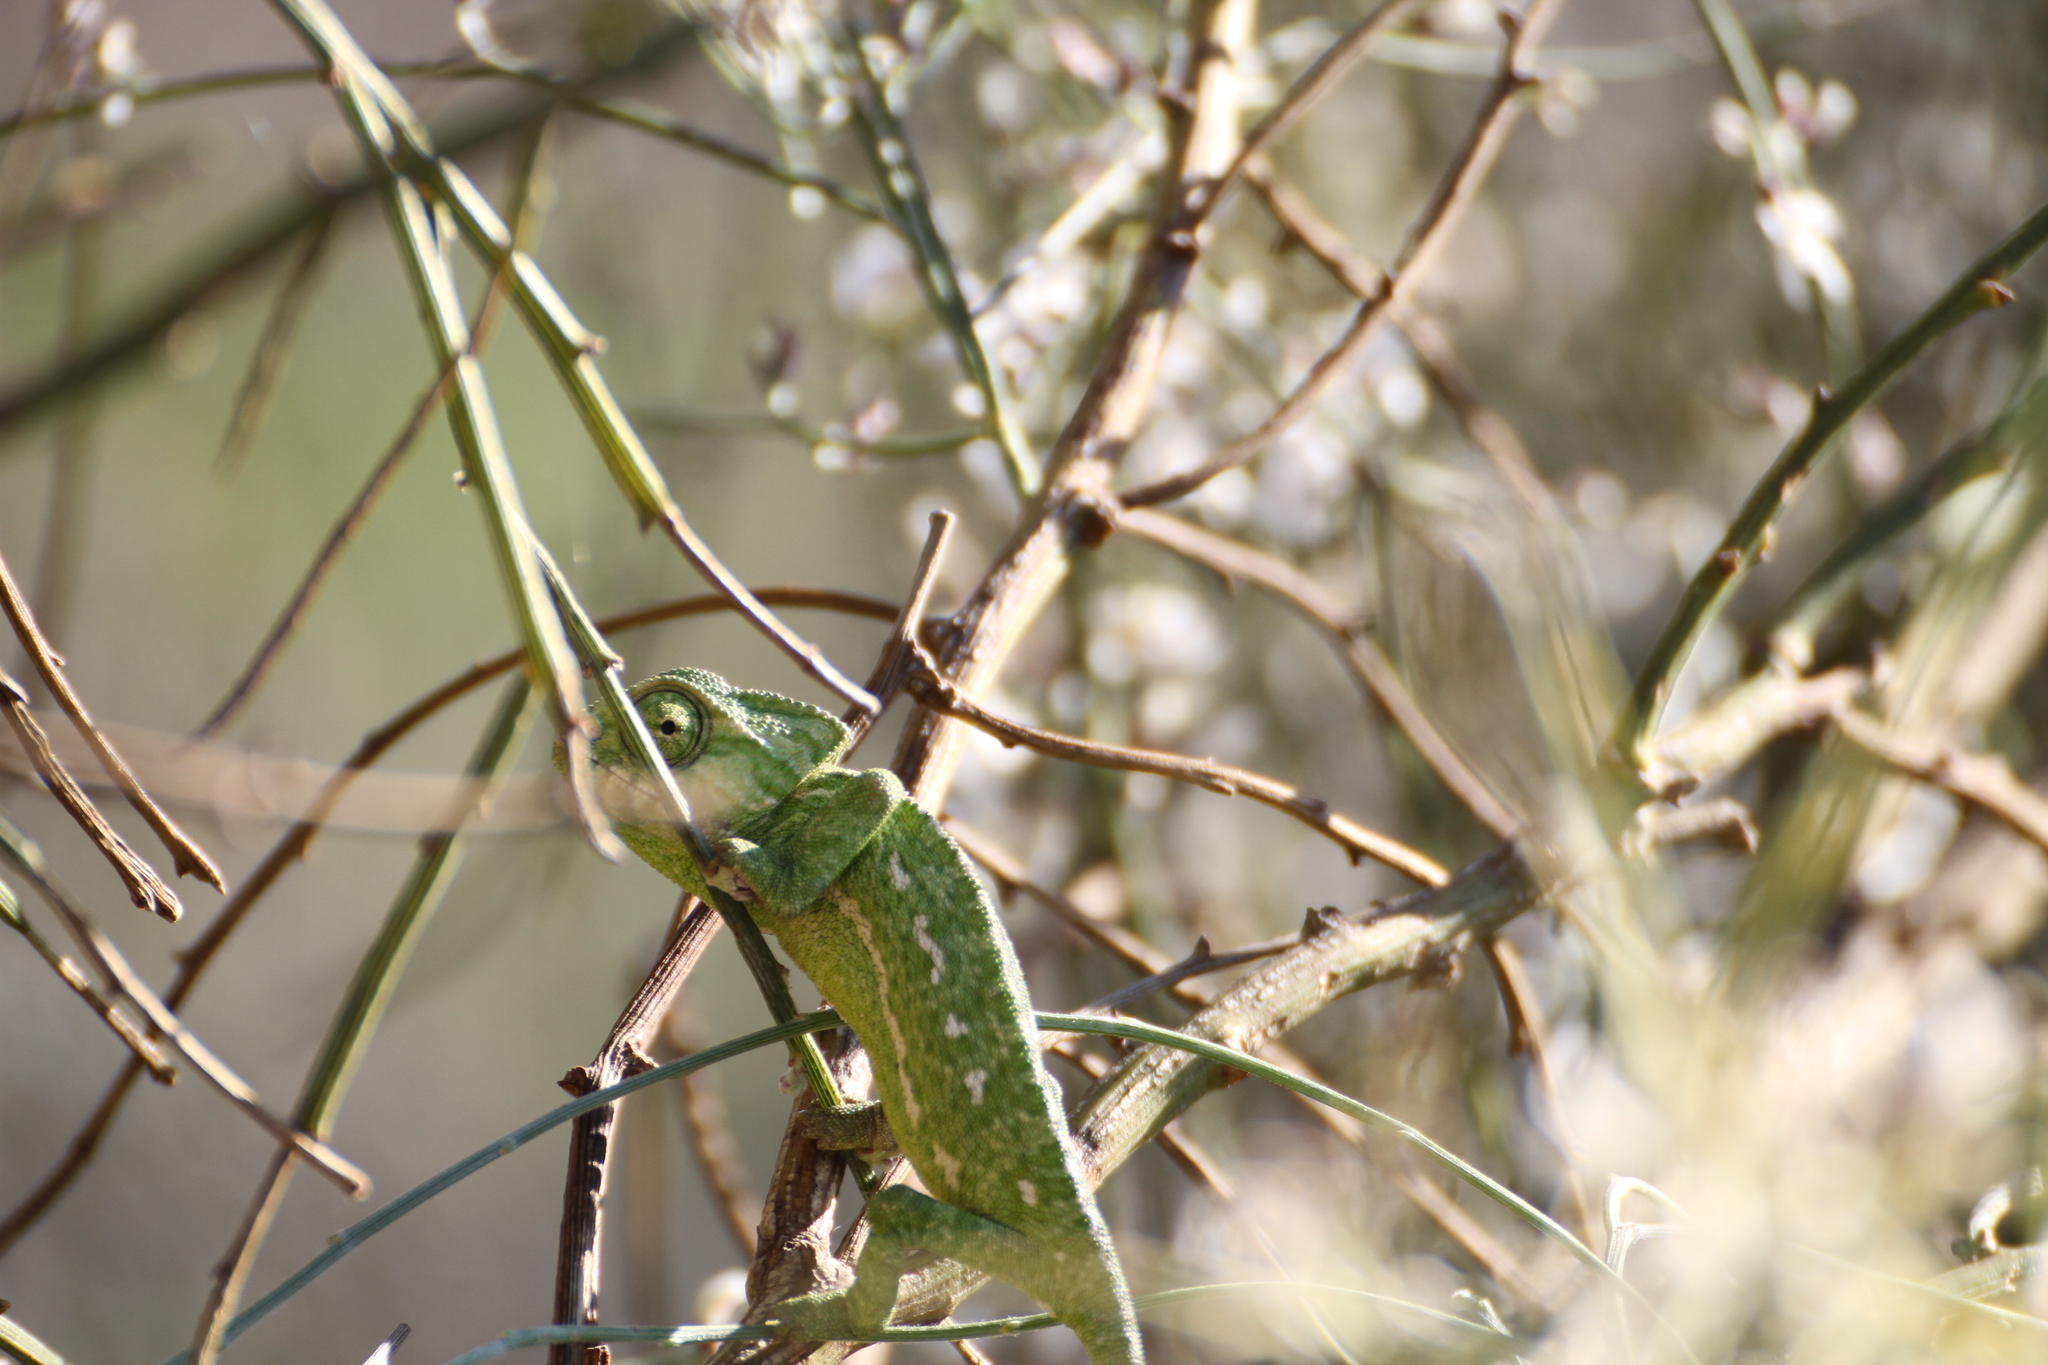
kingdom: Animalia
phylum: Chordata
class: Squamata
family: Chamaeleonidae
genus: Chamaeleo
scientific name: Chamaeleo chamaeleon
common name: Mediterranean chameleon
